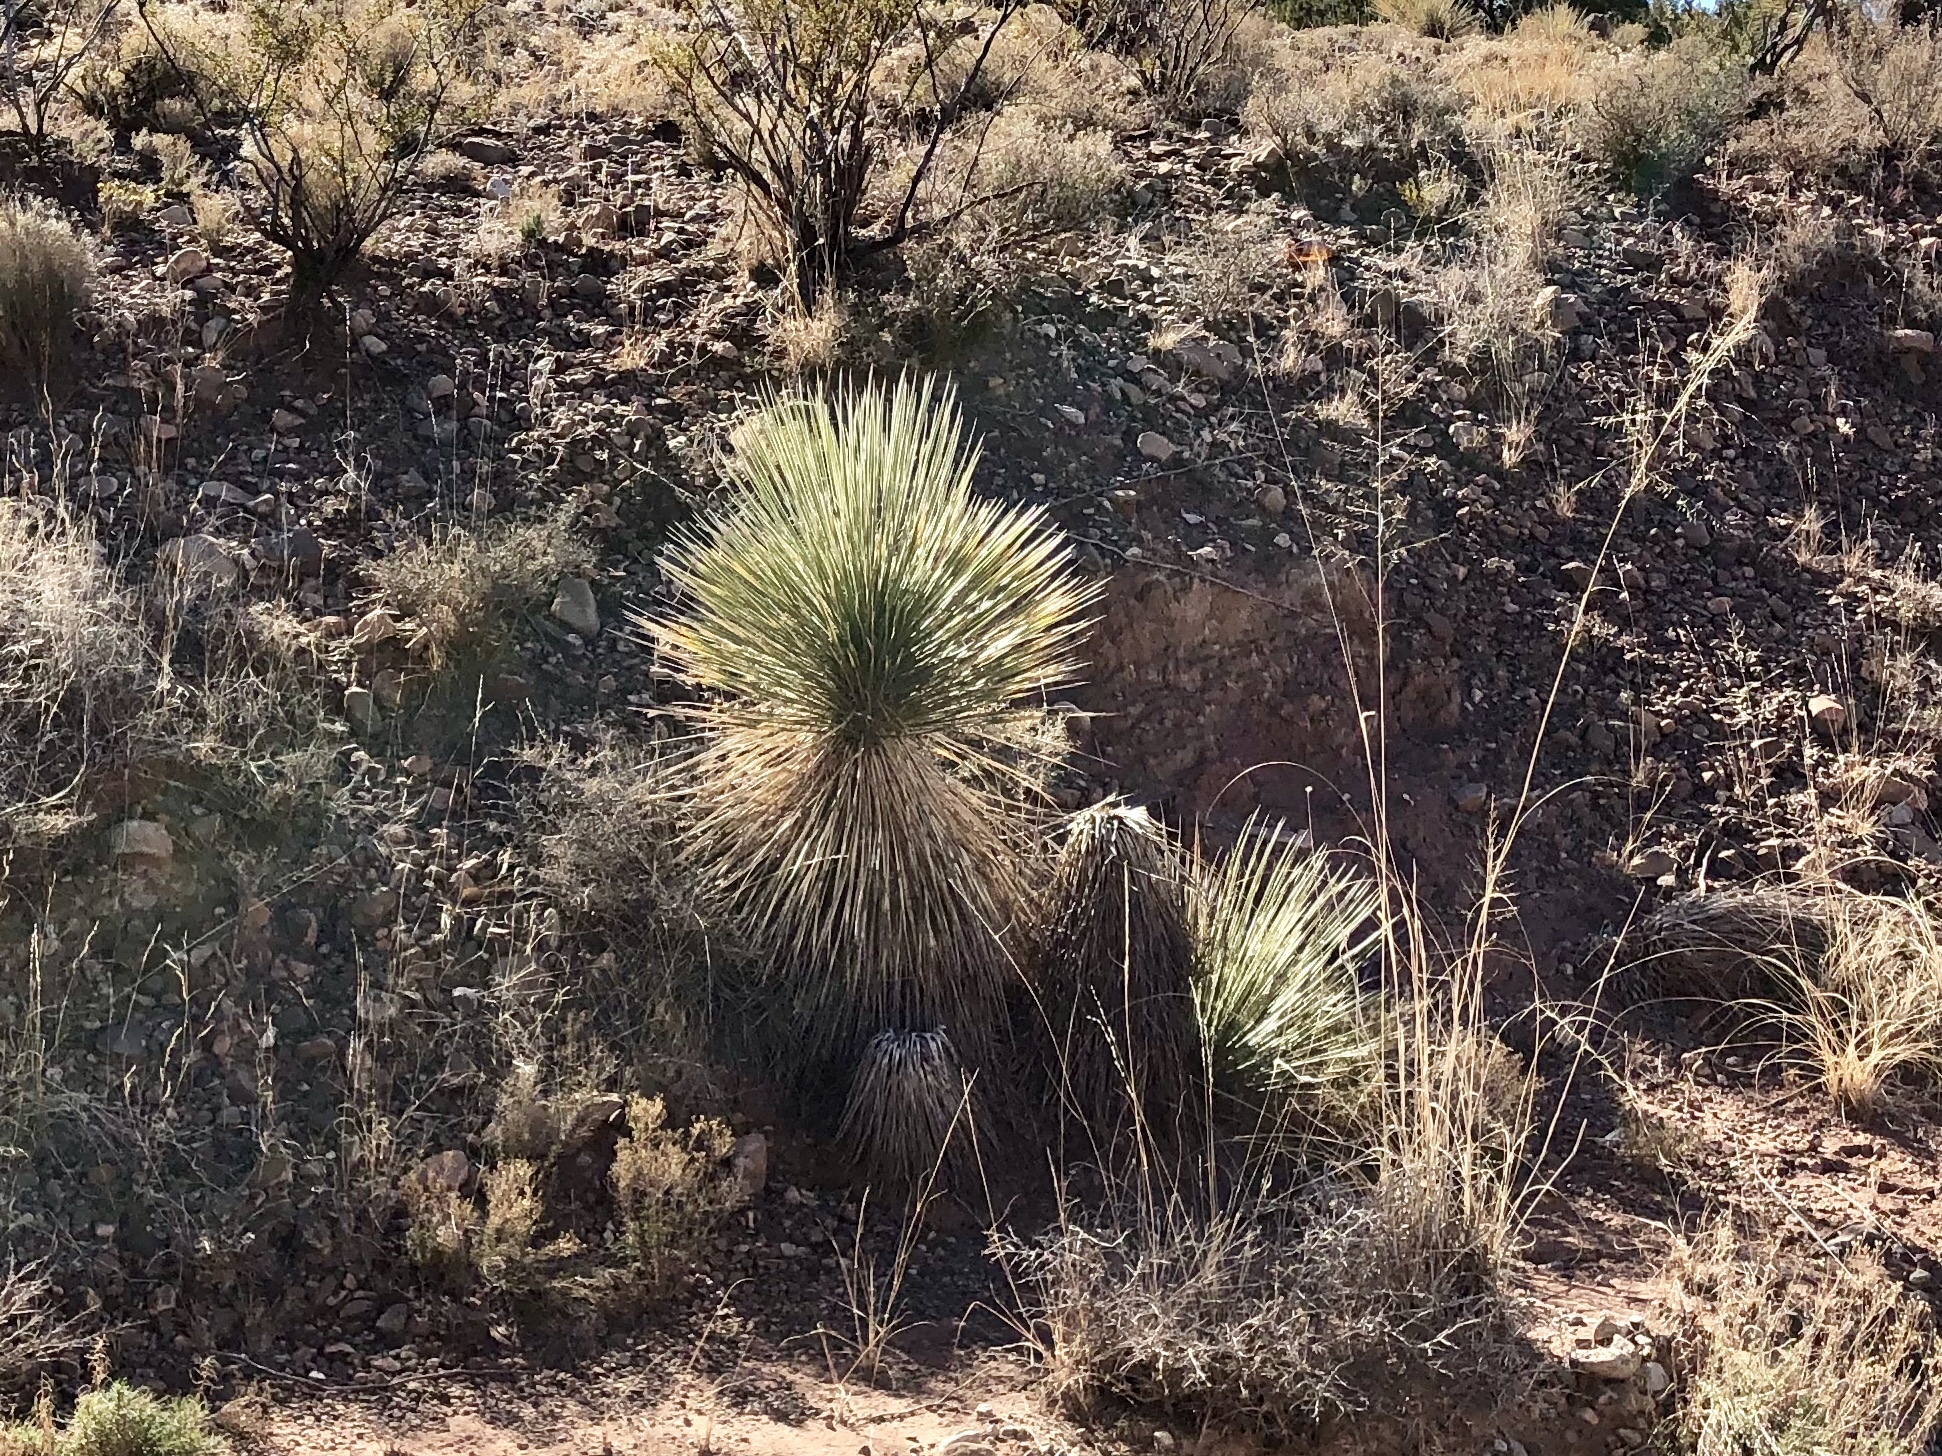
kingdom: Plantae
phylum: Tracheophyta
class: Liliopsida
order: Asparagales
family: Asparagaceae
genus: Yucca
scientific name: Yucca elata
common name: Palmella
